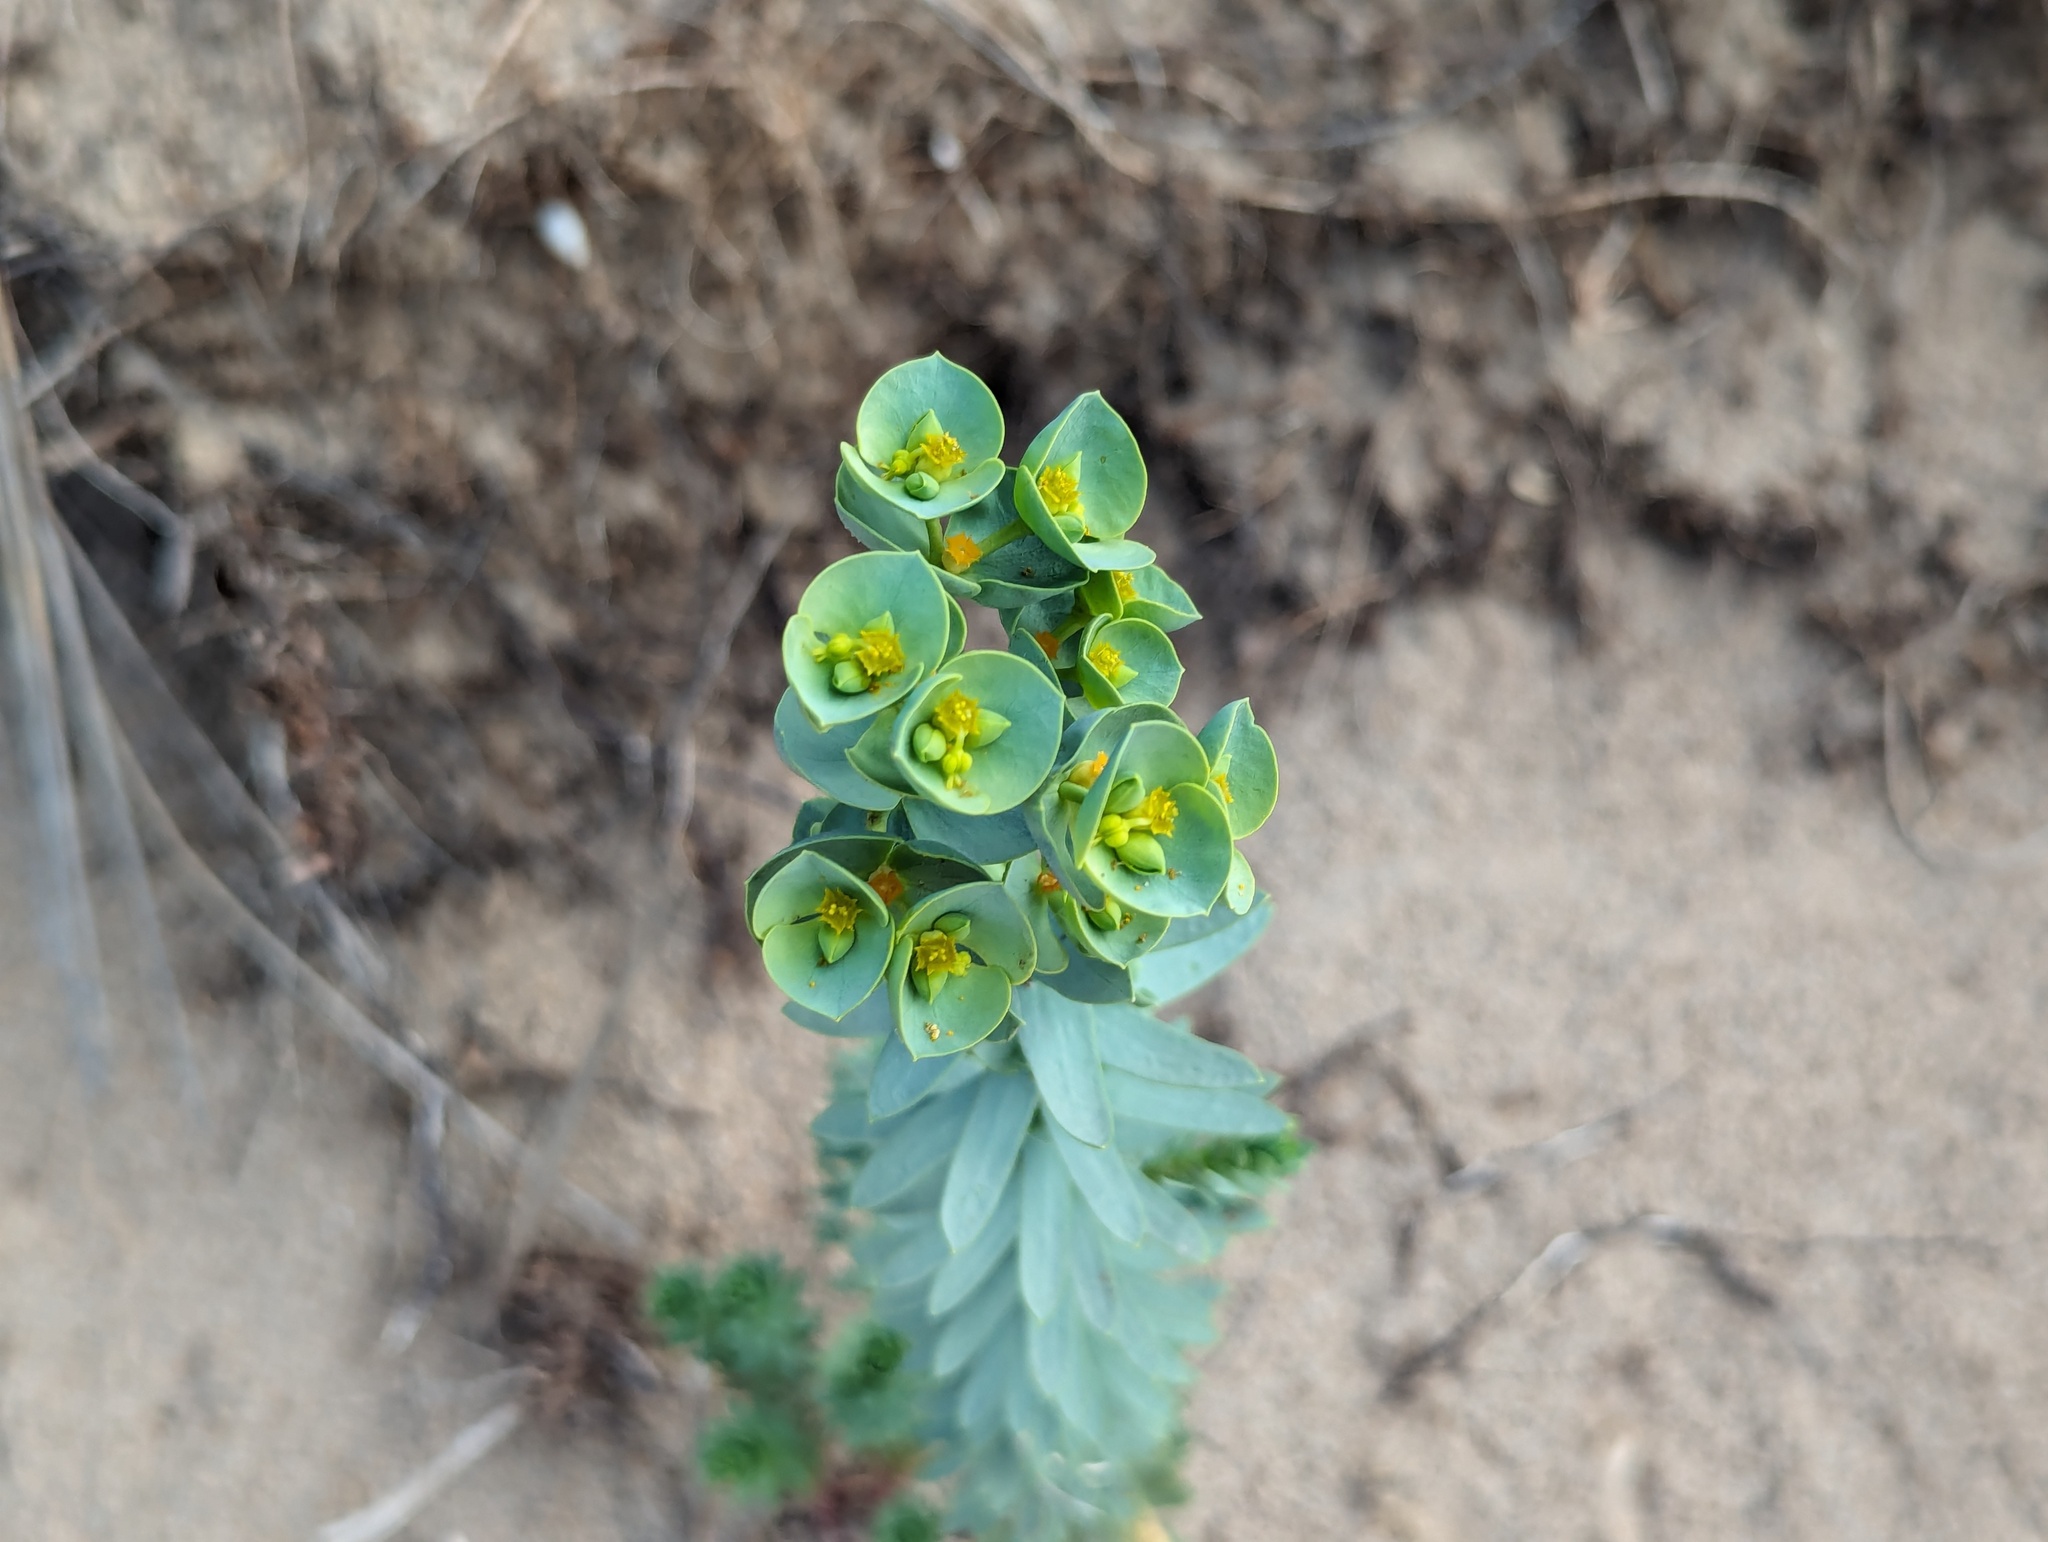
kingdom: Plantae
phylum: Tracheophyta
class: Magnoliopsida
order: Malpighiales
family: Euphorbiaceae
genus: Euphorbia
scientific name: Euphorbia paralias
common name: Sea spurge
